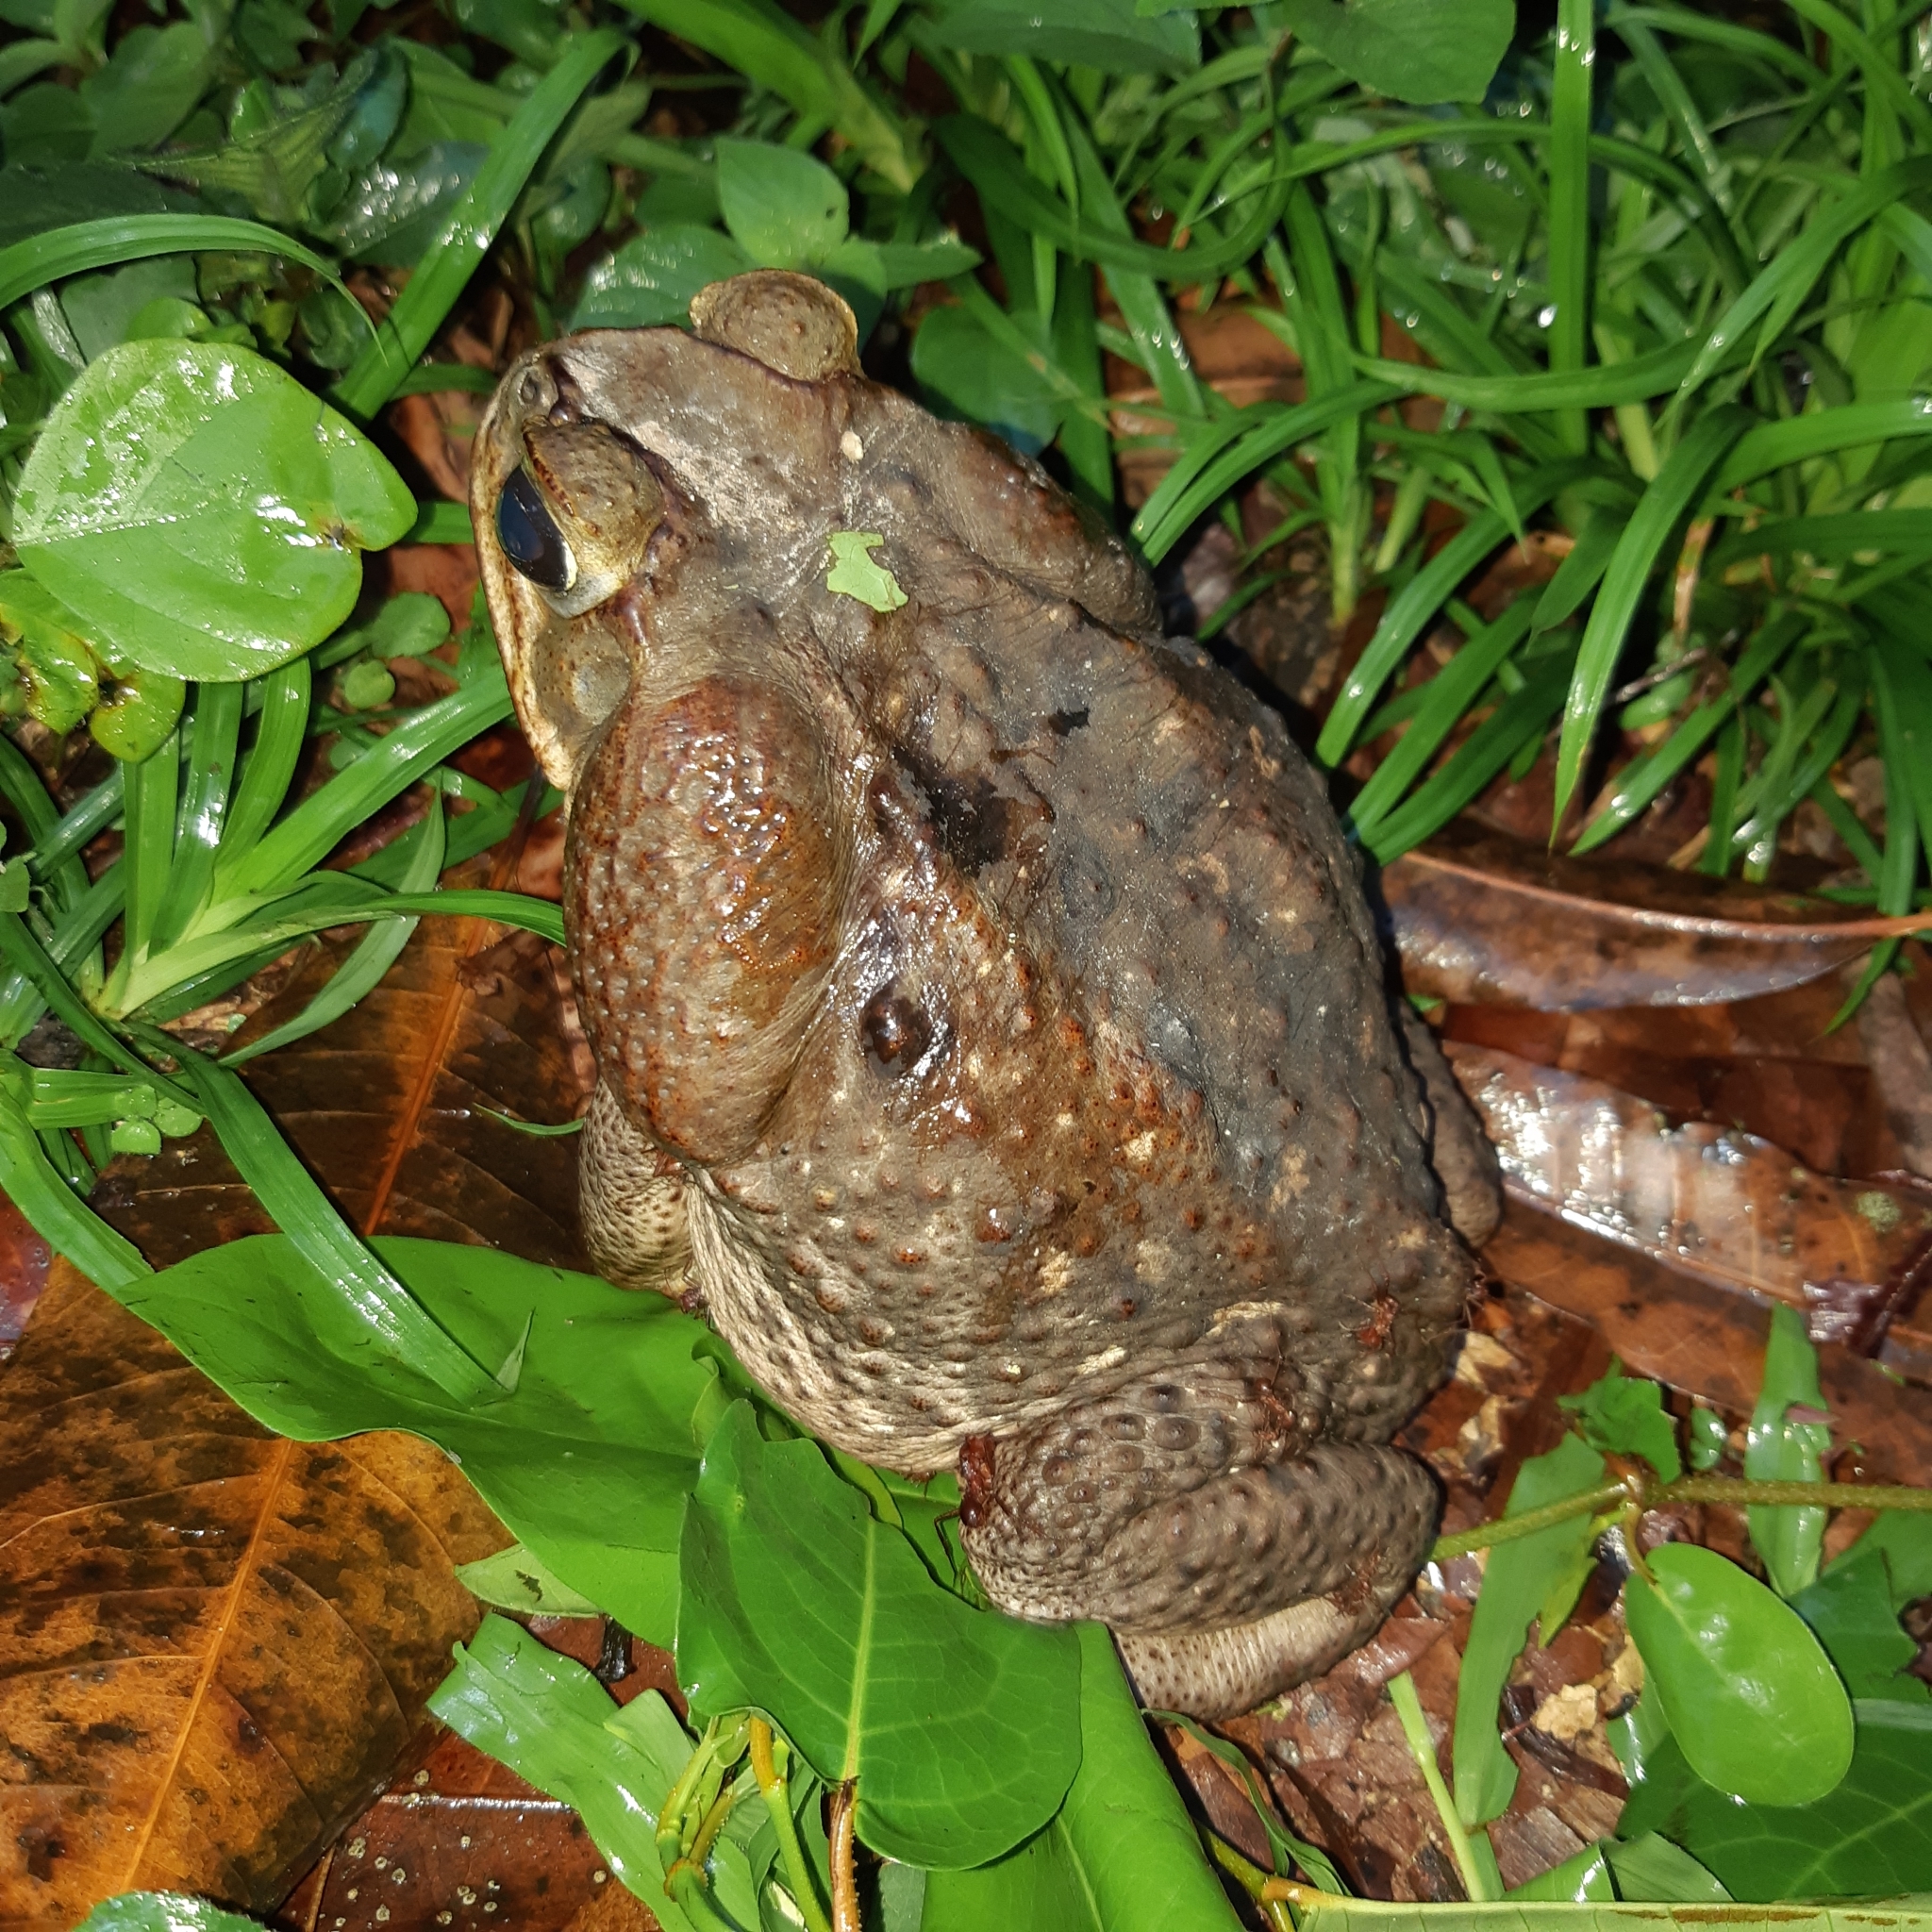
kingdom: Animalia
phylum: Chordata
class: Amphibia
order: Anura
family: Bufonidae
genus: Rhinella
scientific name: Rhinella horribilis
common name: Mesoamerican cane toad
